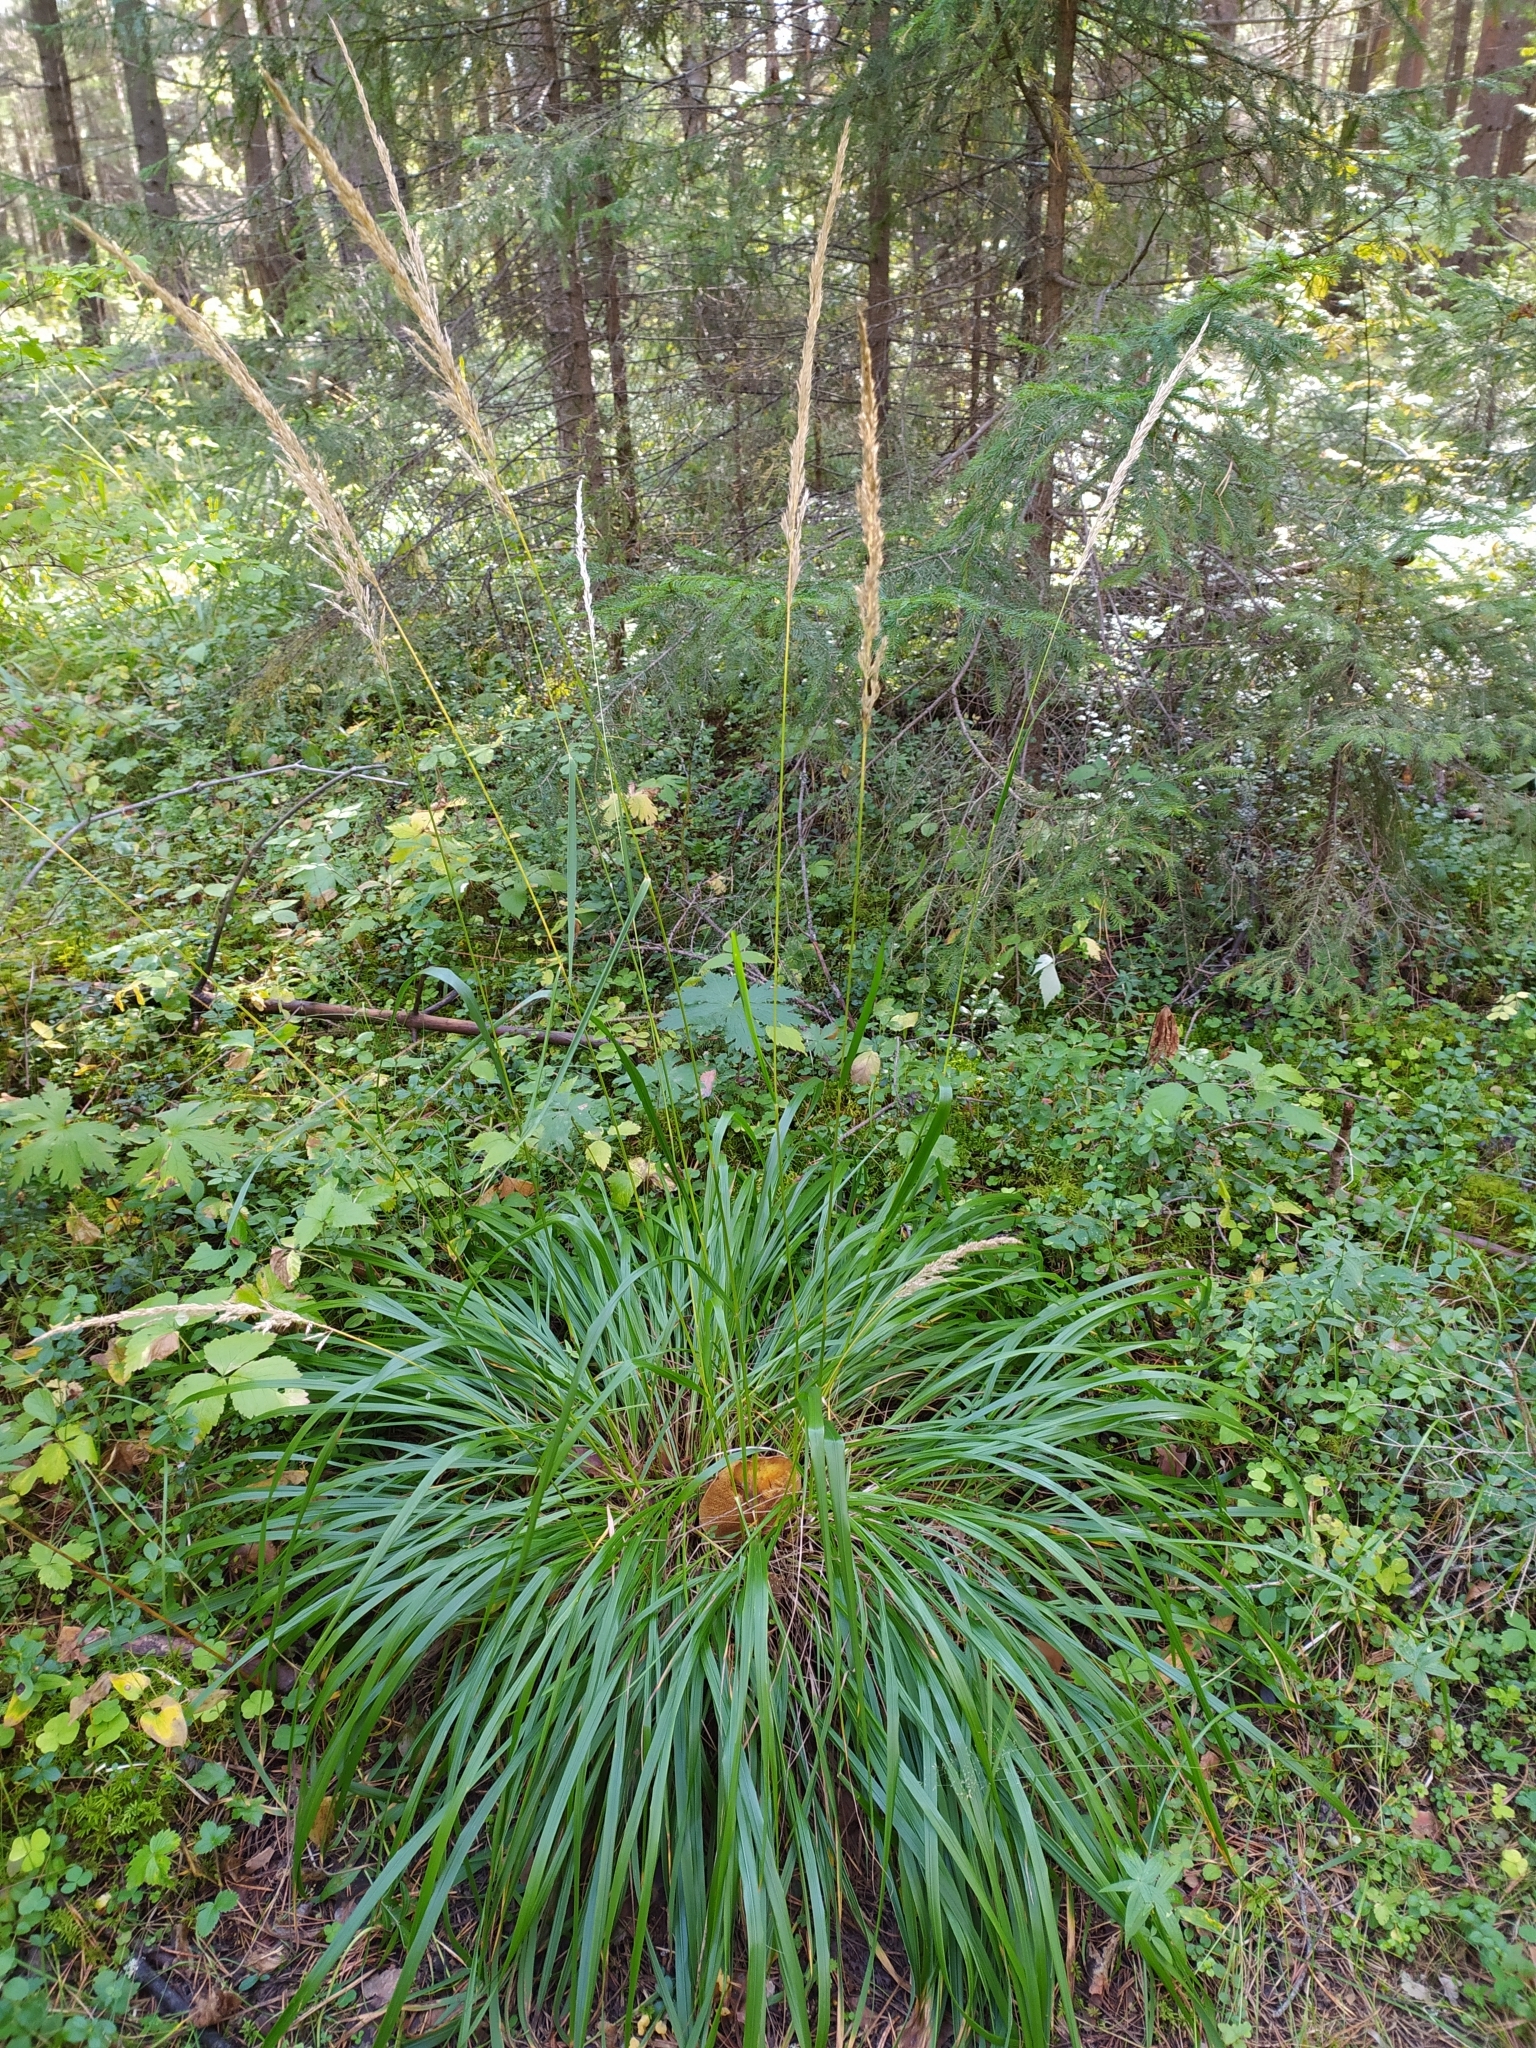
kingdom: Plantae
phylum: Tracheophyta
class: Liliopsida
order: Poales
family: Poaceae
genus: Calamagrostis
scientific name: Calamagrostis arundinacea
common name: Metskastik
